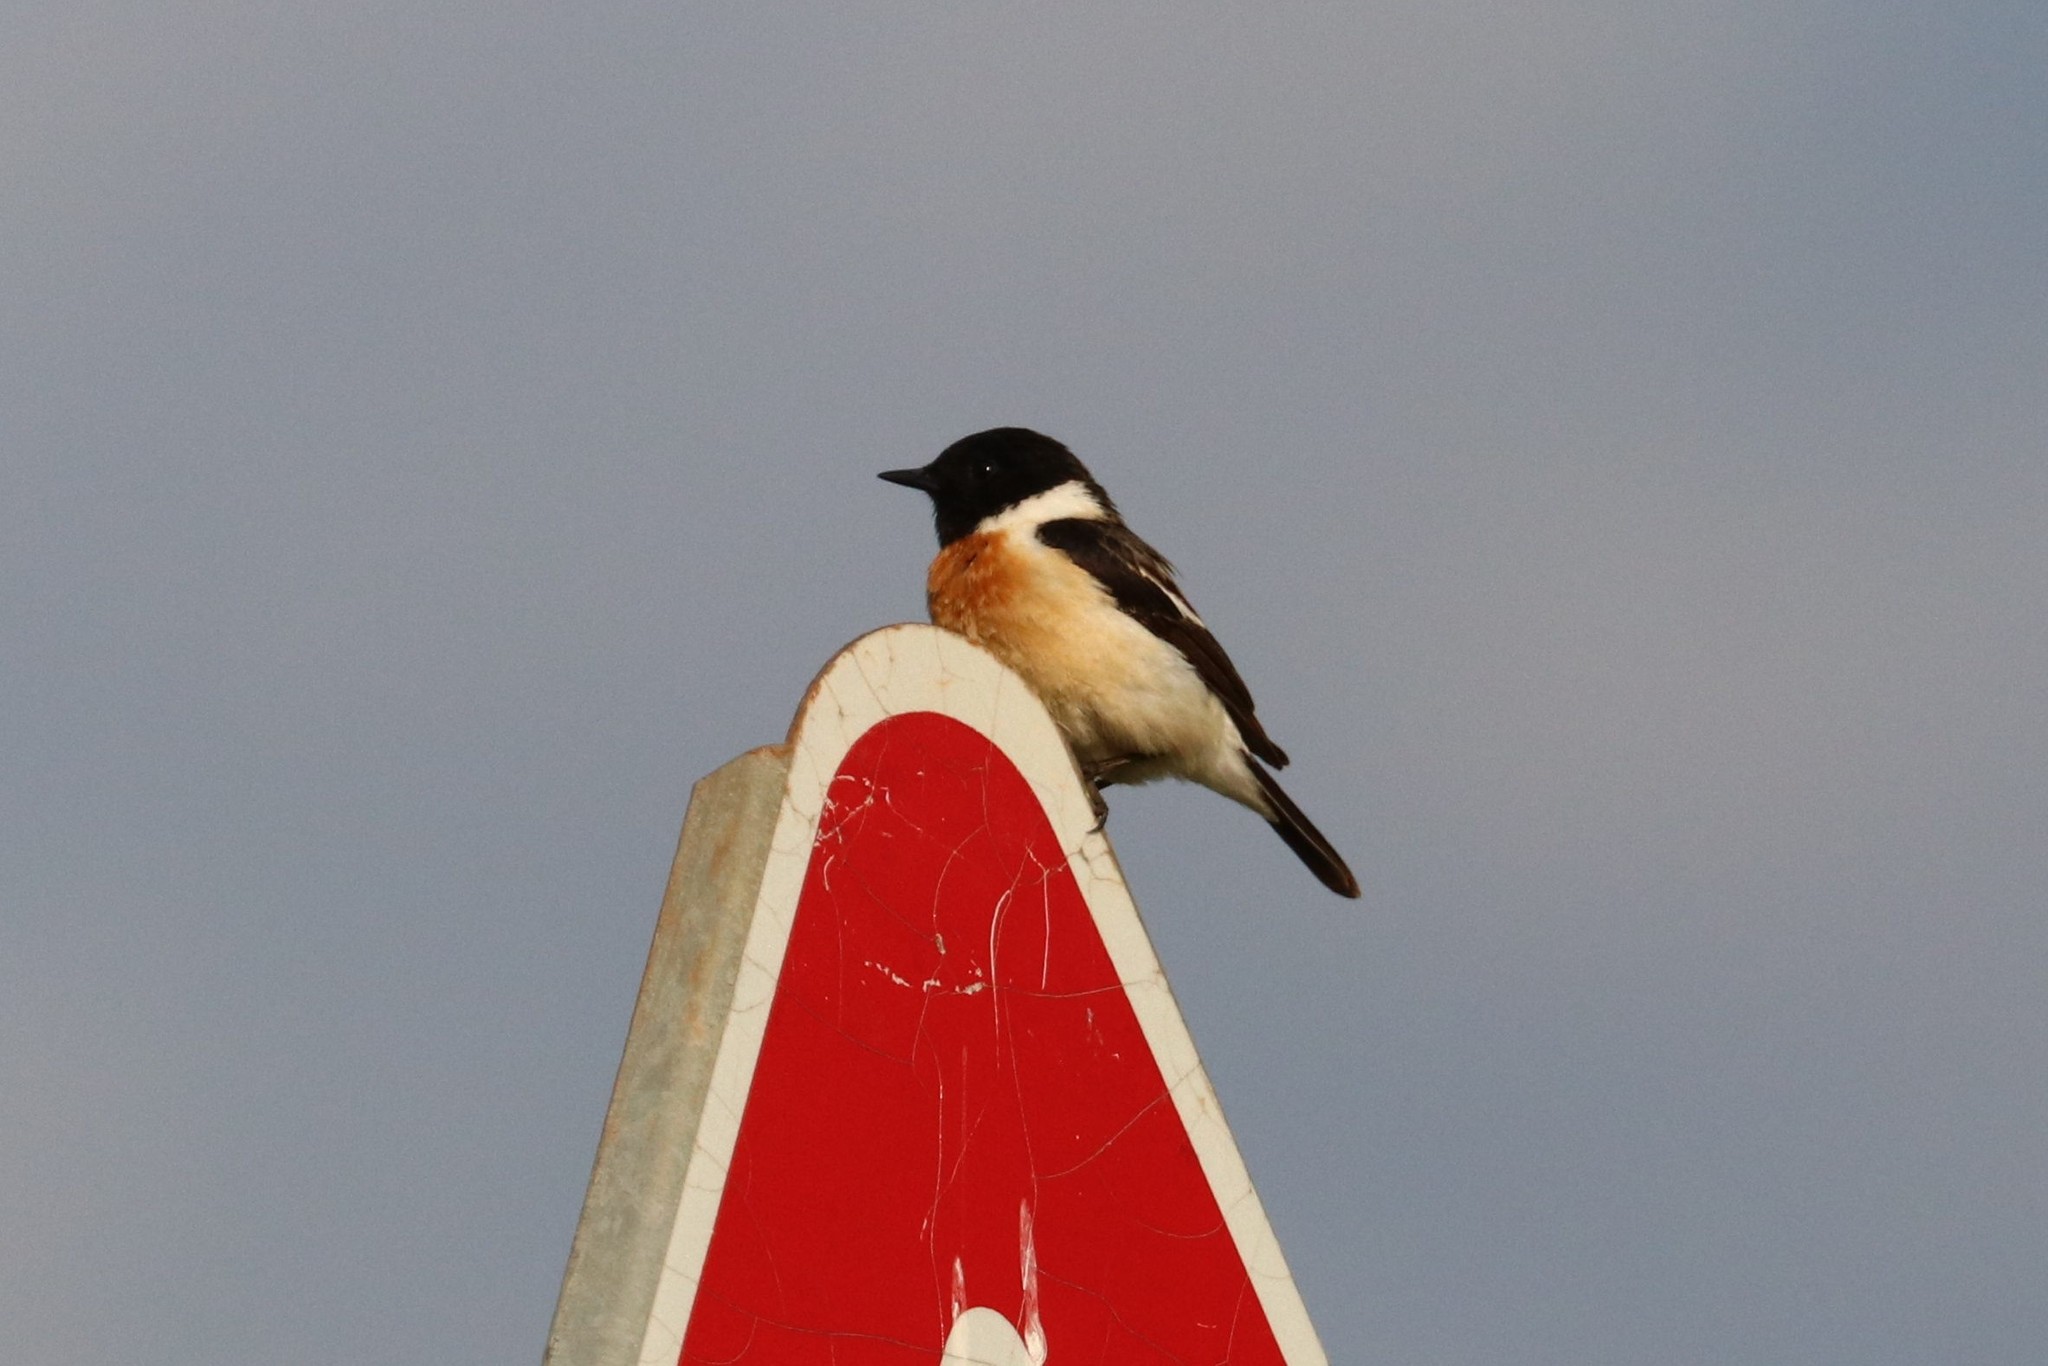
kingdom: Animalia
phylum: Chordata
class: Aves
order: Passeriformes
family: Muscicapidae
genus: Saxicola
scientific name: Saxicola maurus
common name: Siberian stonechat
